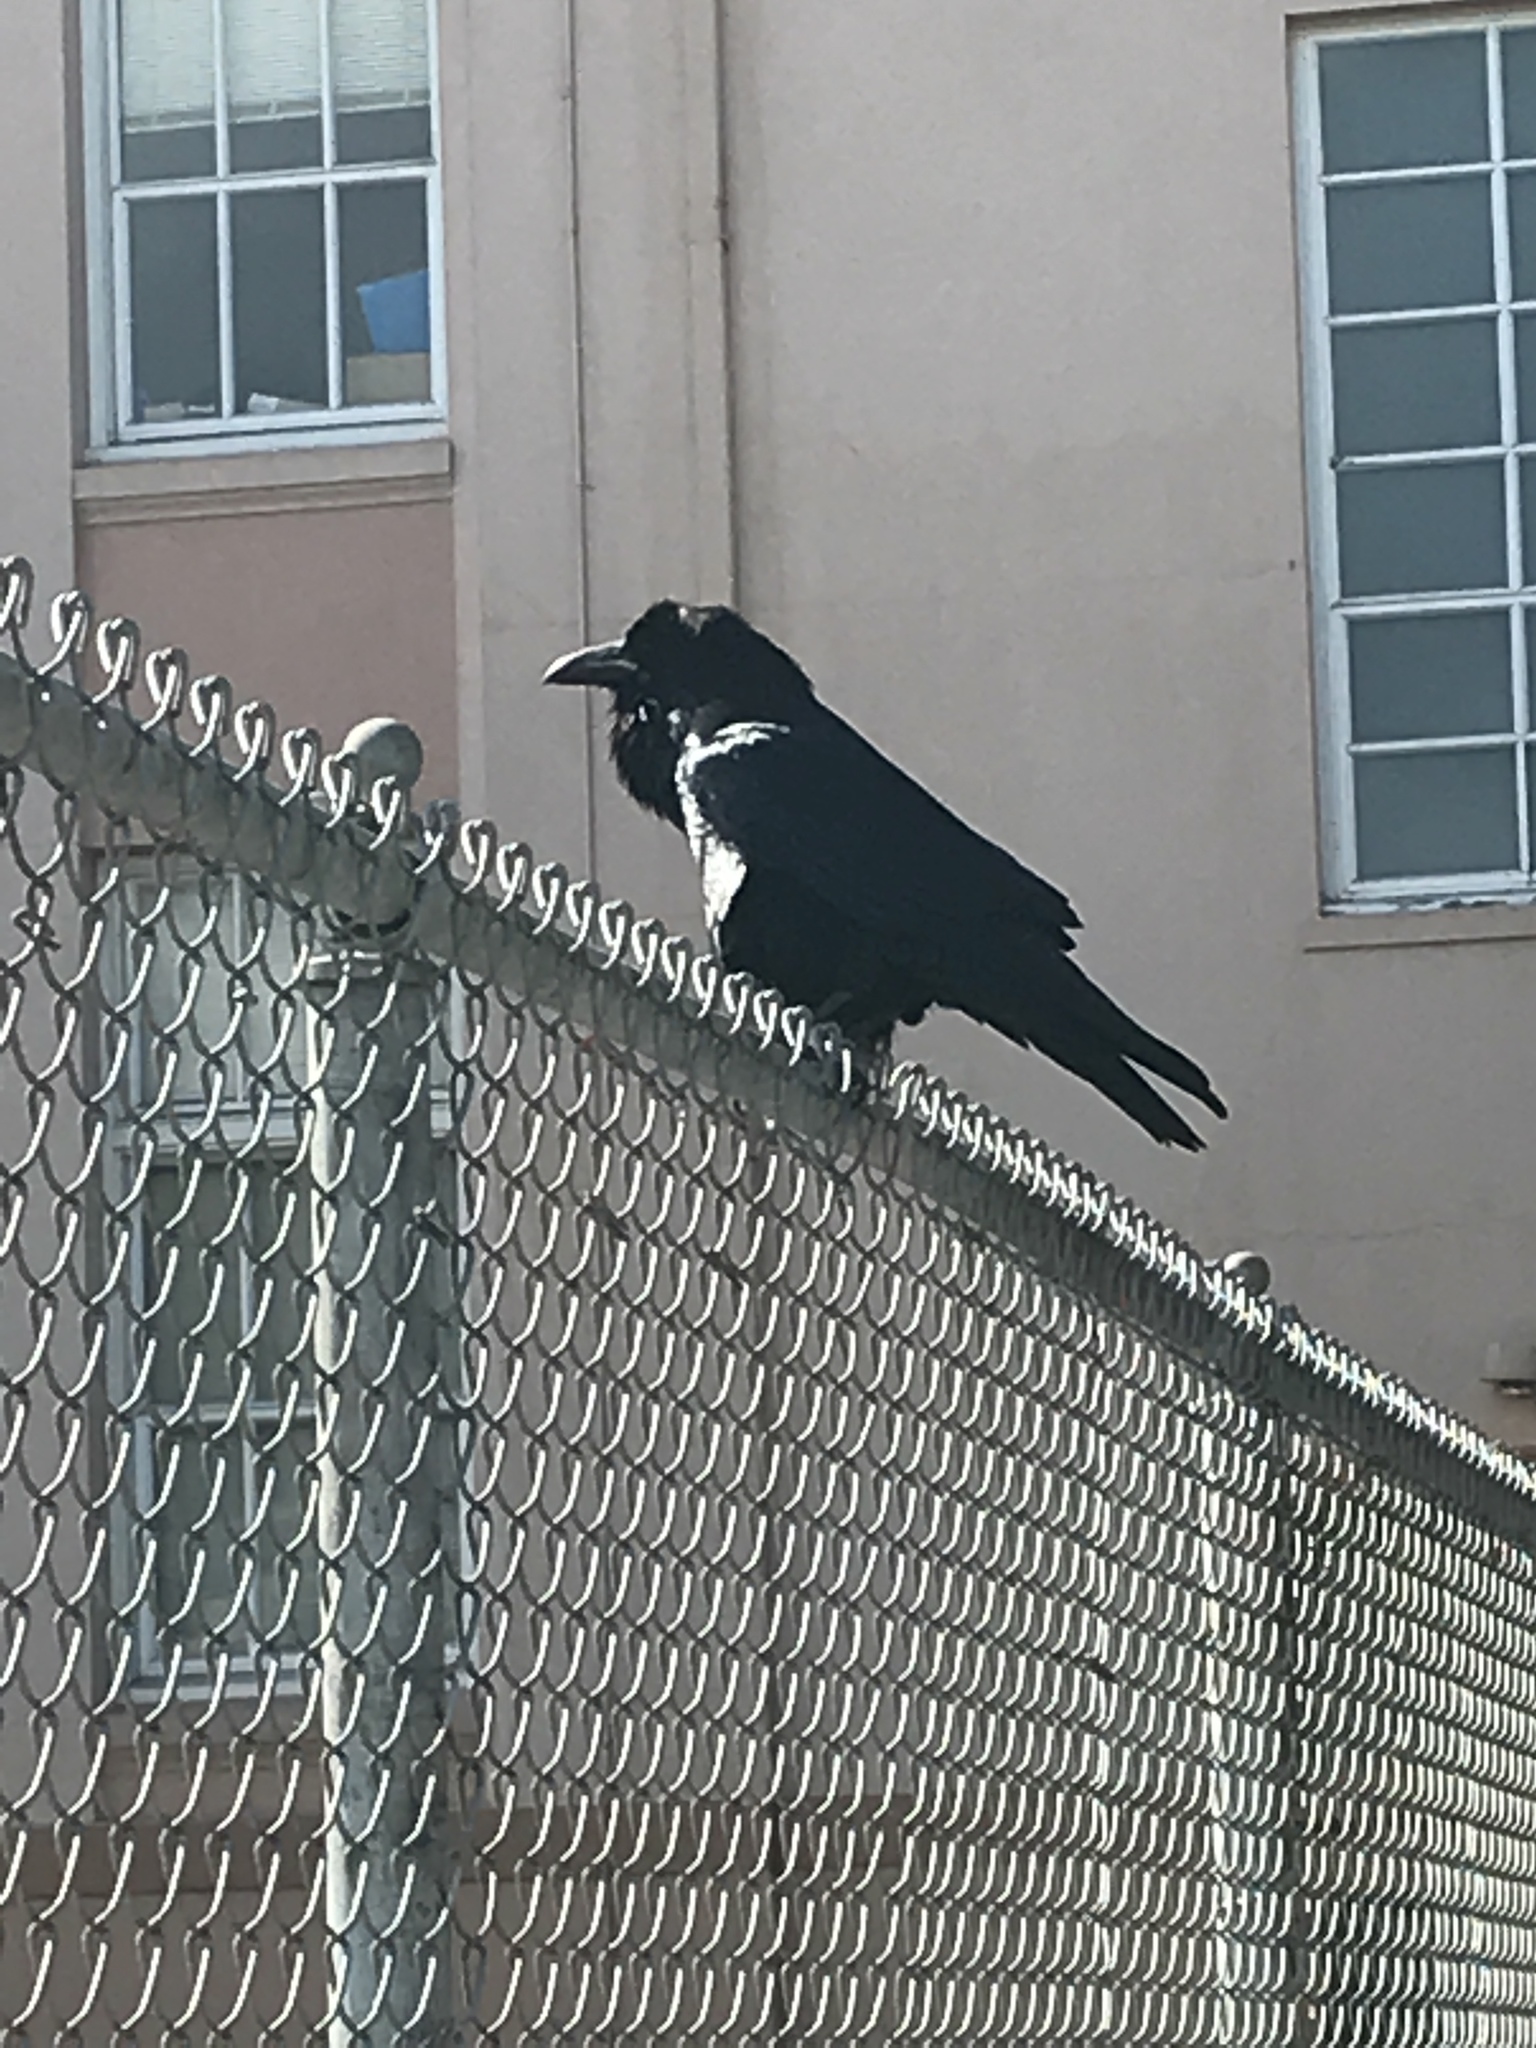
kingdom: Animalia
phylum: Chordata
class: Aves
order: Passeriformes
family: Corvidae
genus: Corvus
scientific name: Corvus corax
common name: Common raven
